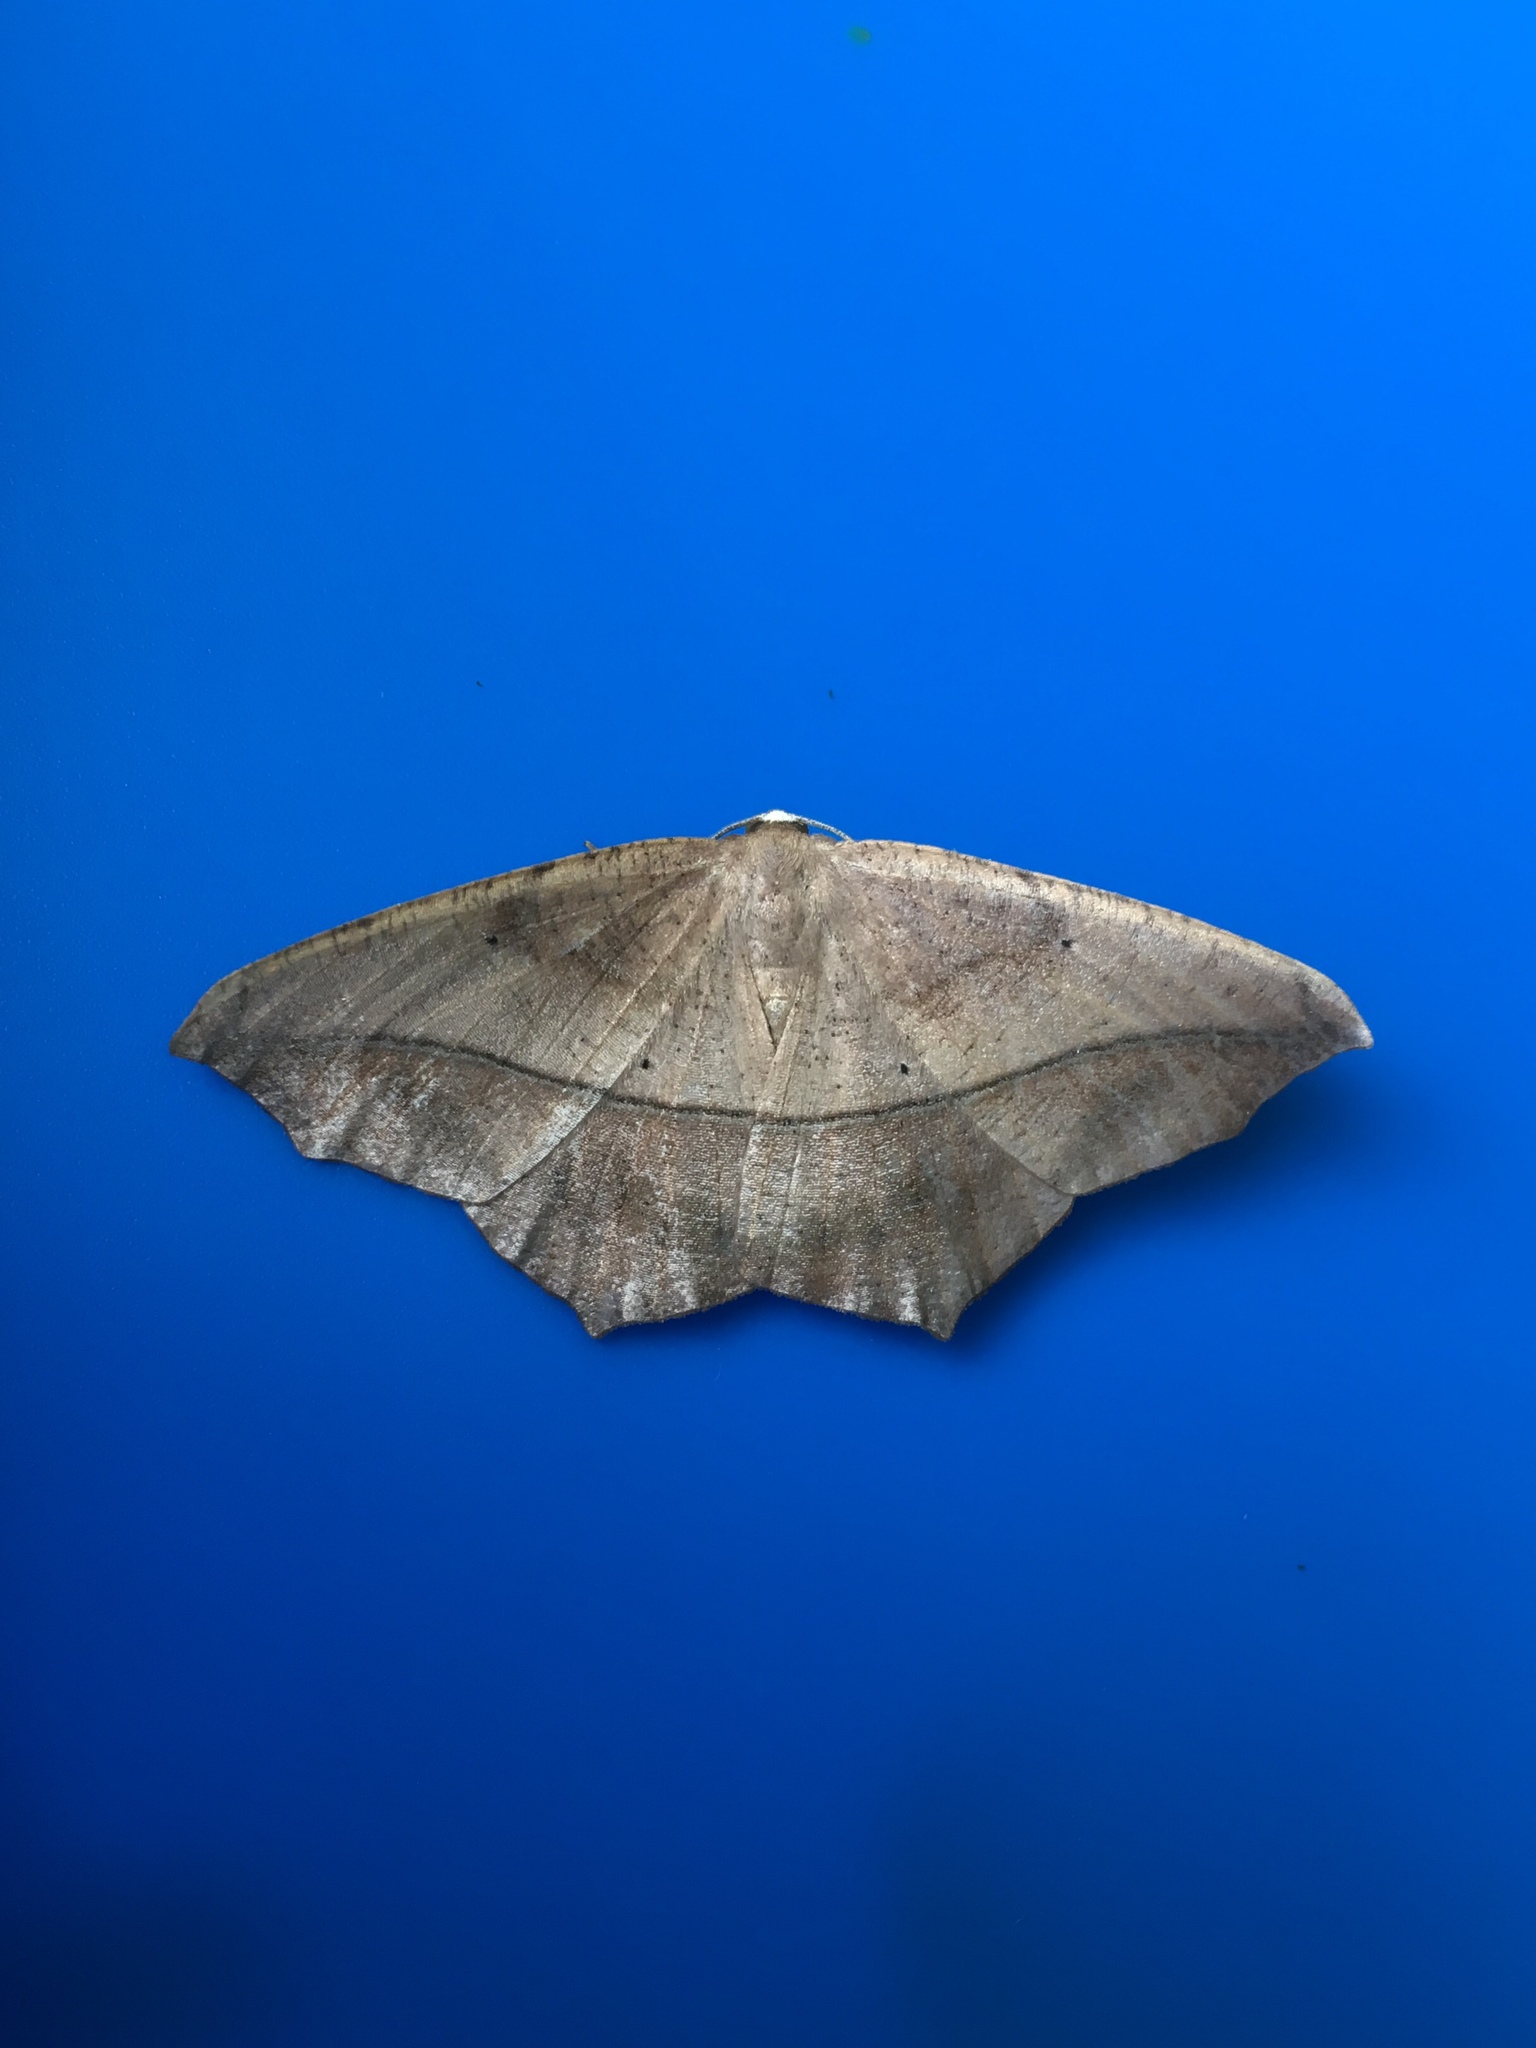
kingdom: Animalia
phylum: Arthropoda
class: Insecta
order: Lepidoptera
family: Geometridae
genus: Prochoerodes
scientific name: Prochoerodes lineola
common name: Large maple spanworm
